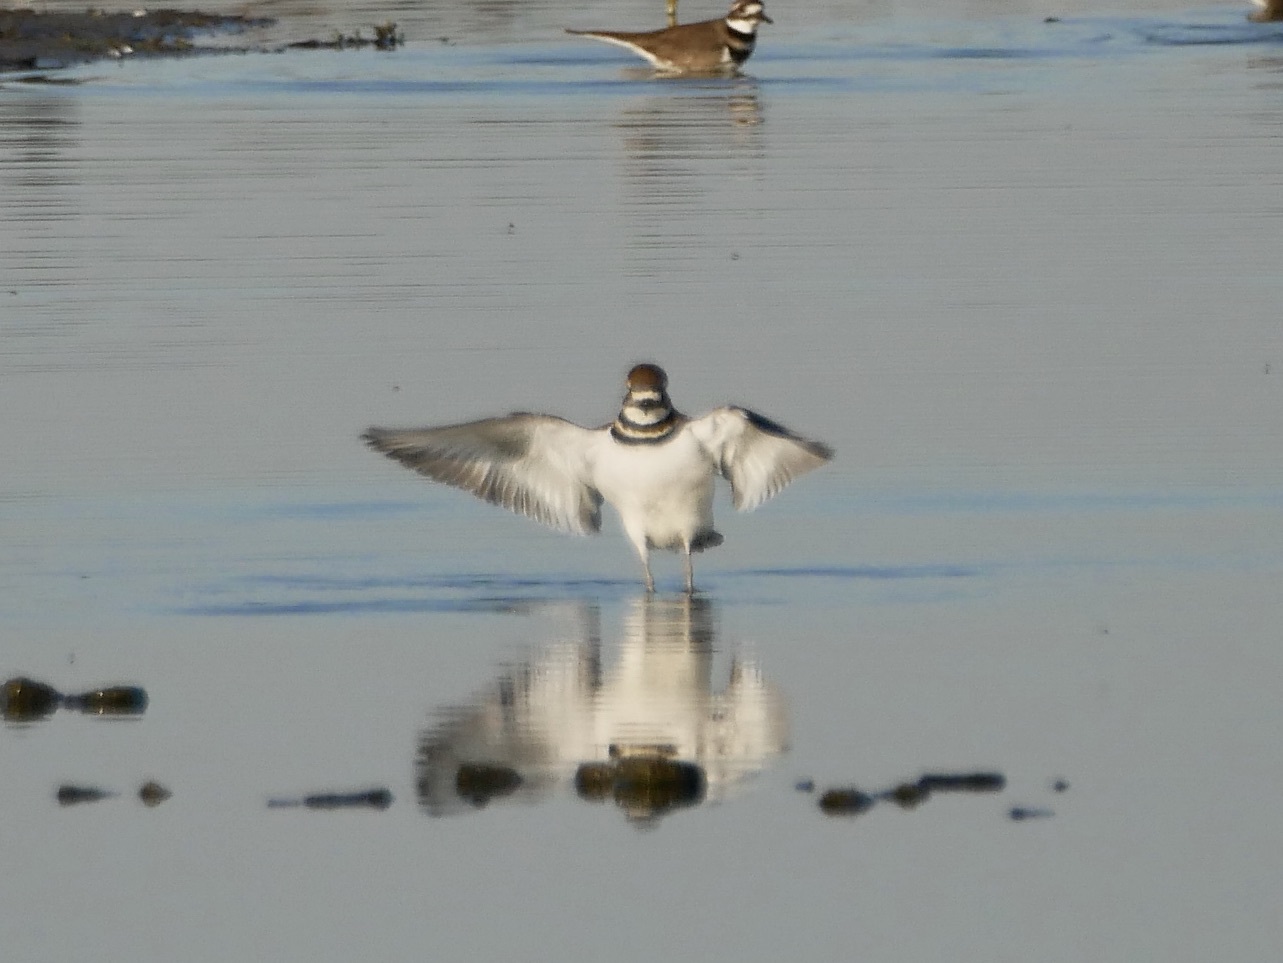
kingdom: Animalia
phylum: Chordata
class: Aves
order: Charadriiformes
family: Charadriidae
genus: Charadrius
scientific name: Charadrius vociferus
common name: Killdeer
